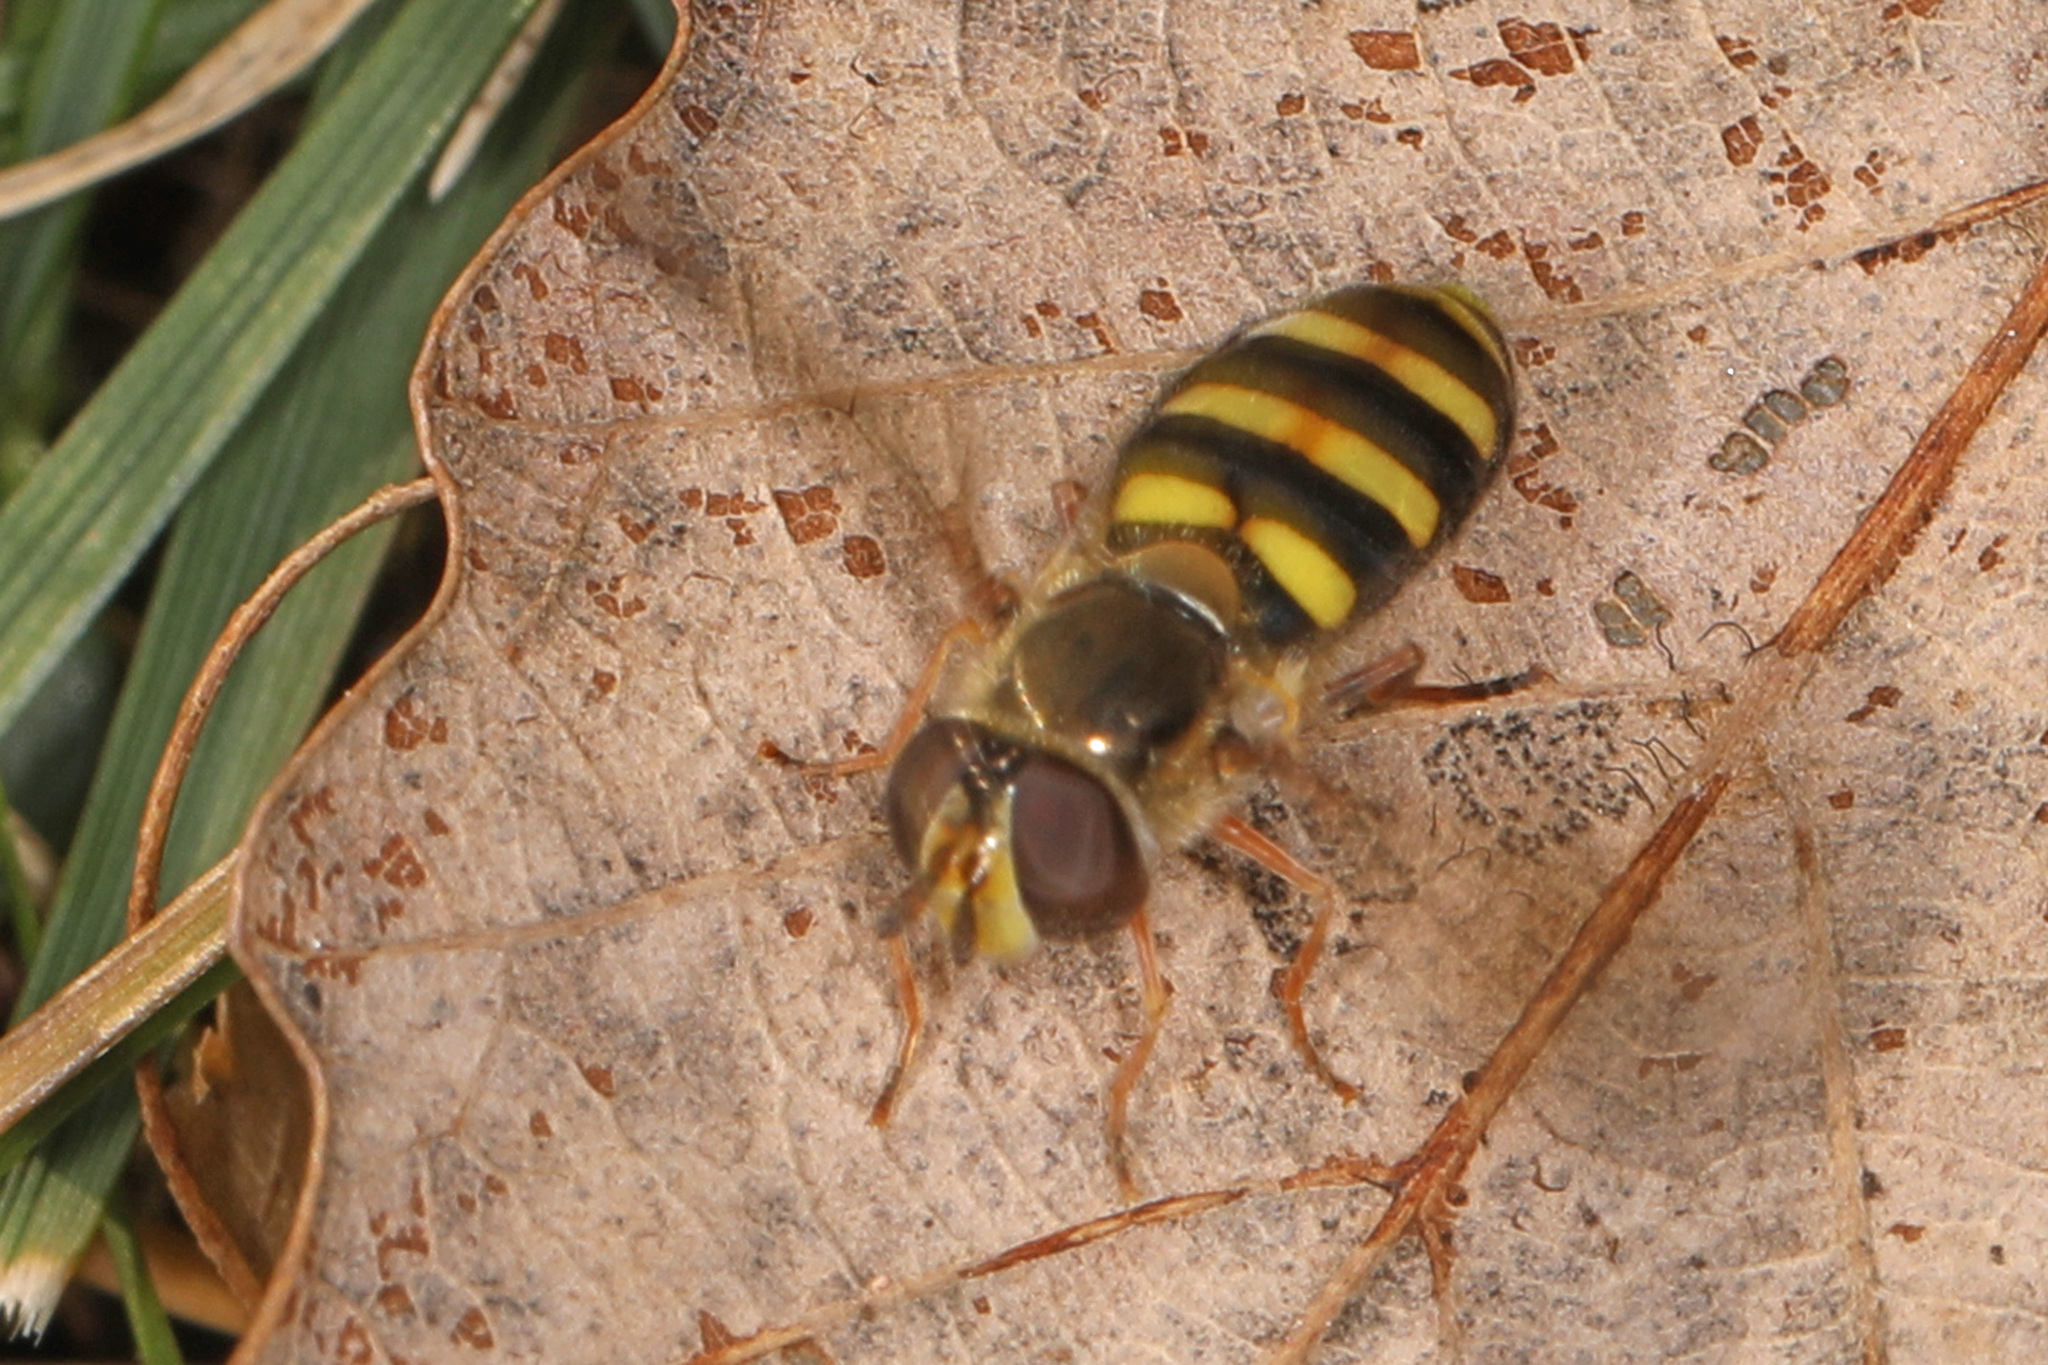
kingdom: Animalia
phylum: Arthropoda
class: Insecta
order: Diptera
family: Syrphidae
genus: Eupeodes
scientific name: Eupeodes
